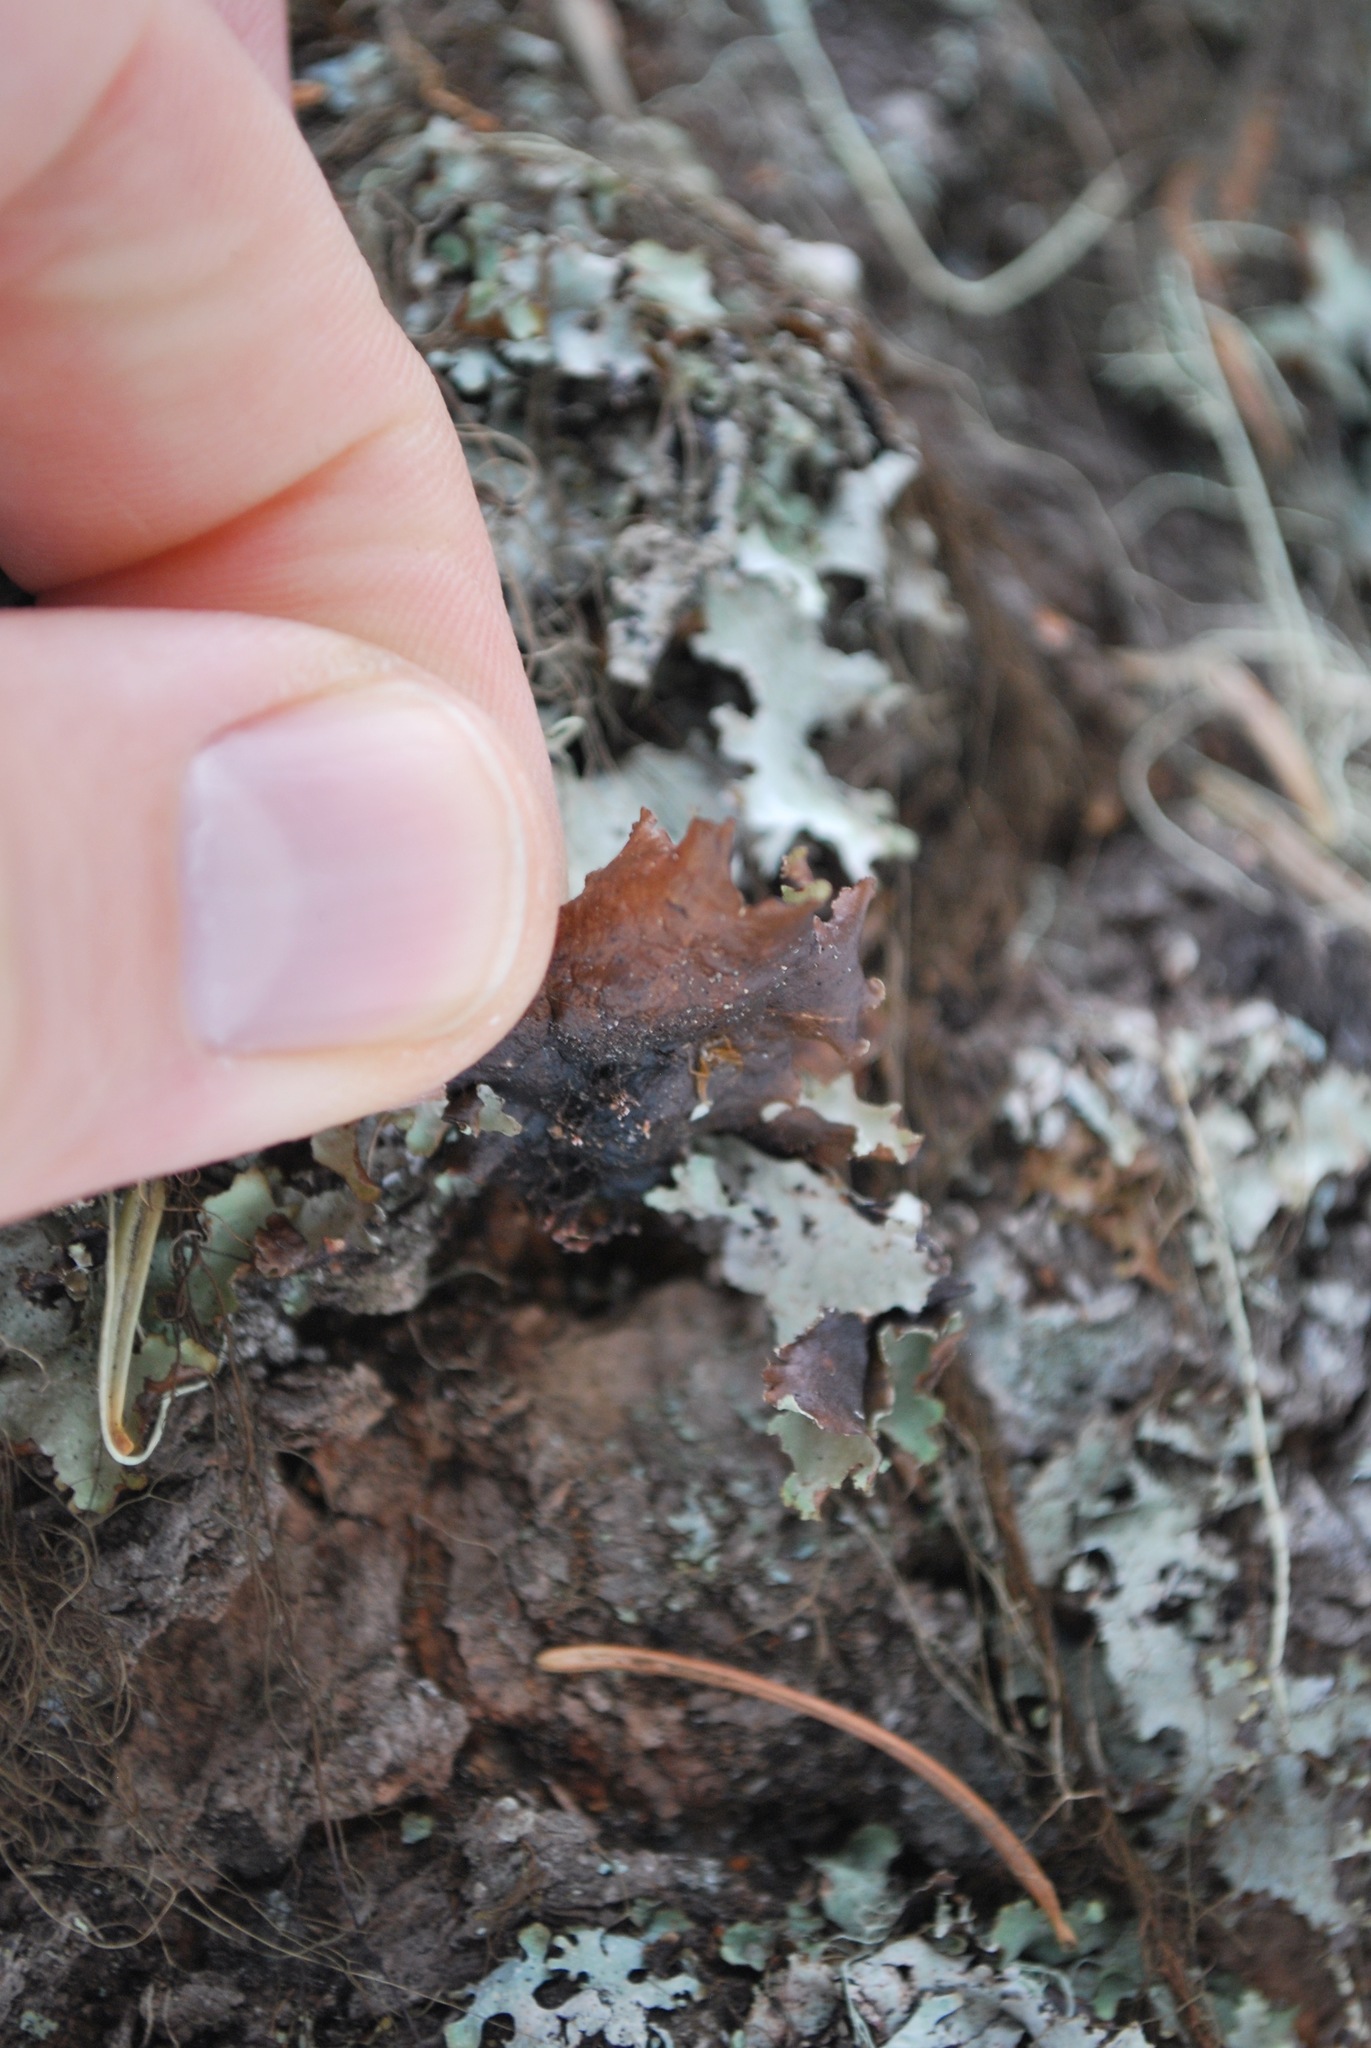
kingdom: Fungi
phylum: Ascomycota
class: Lecanoromycetes
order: Lecanorales
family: Parmeliaceae
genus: Platismatia
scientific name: Platismatia glauca
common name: Varied rag lichen
